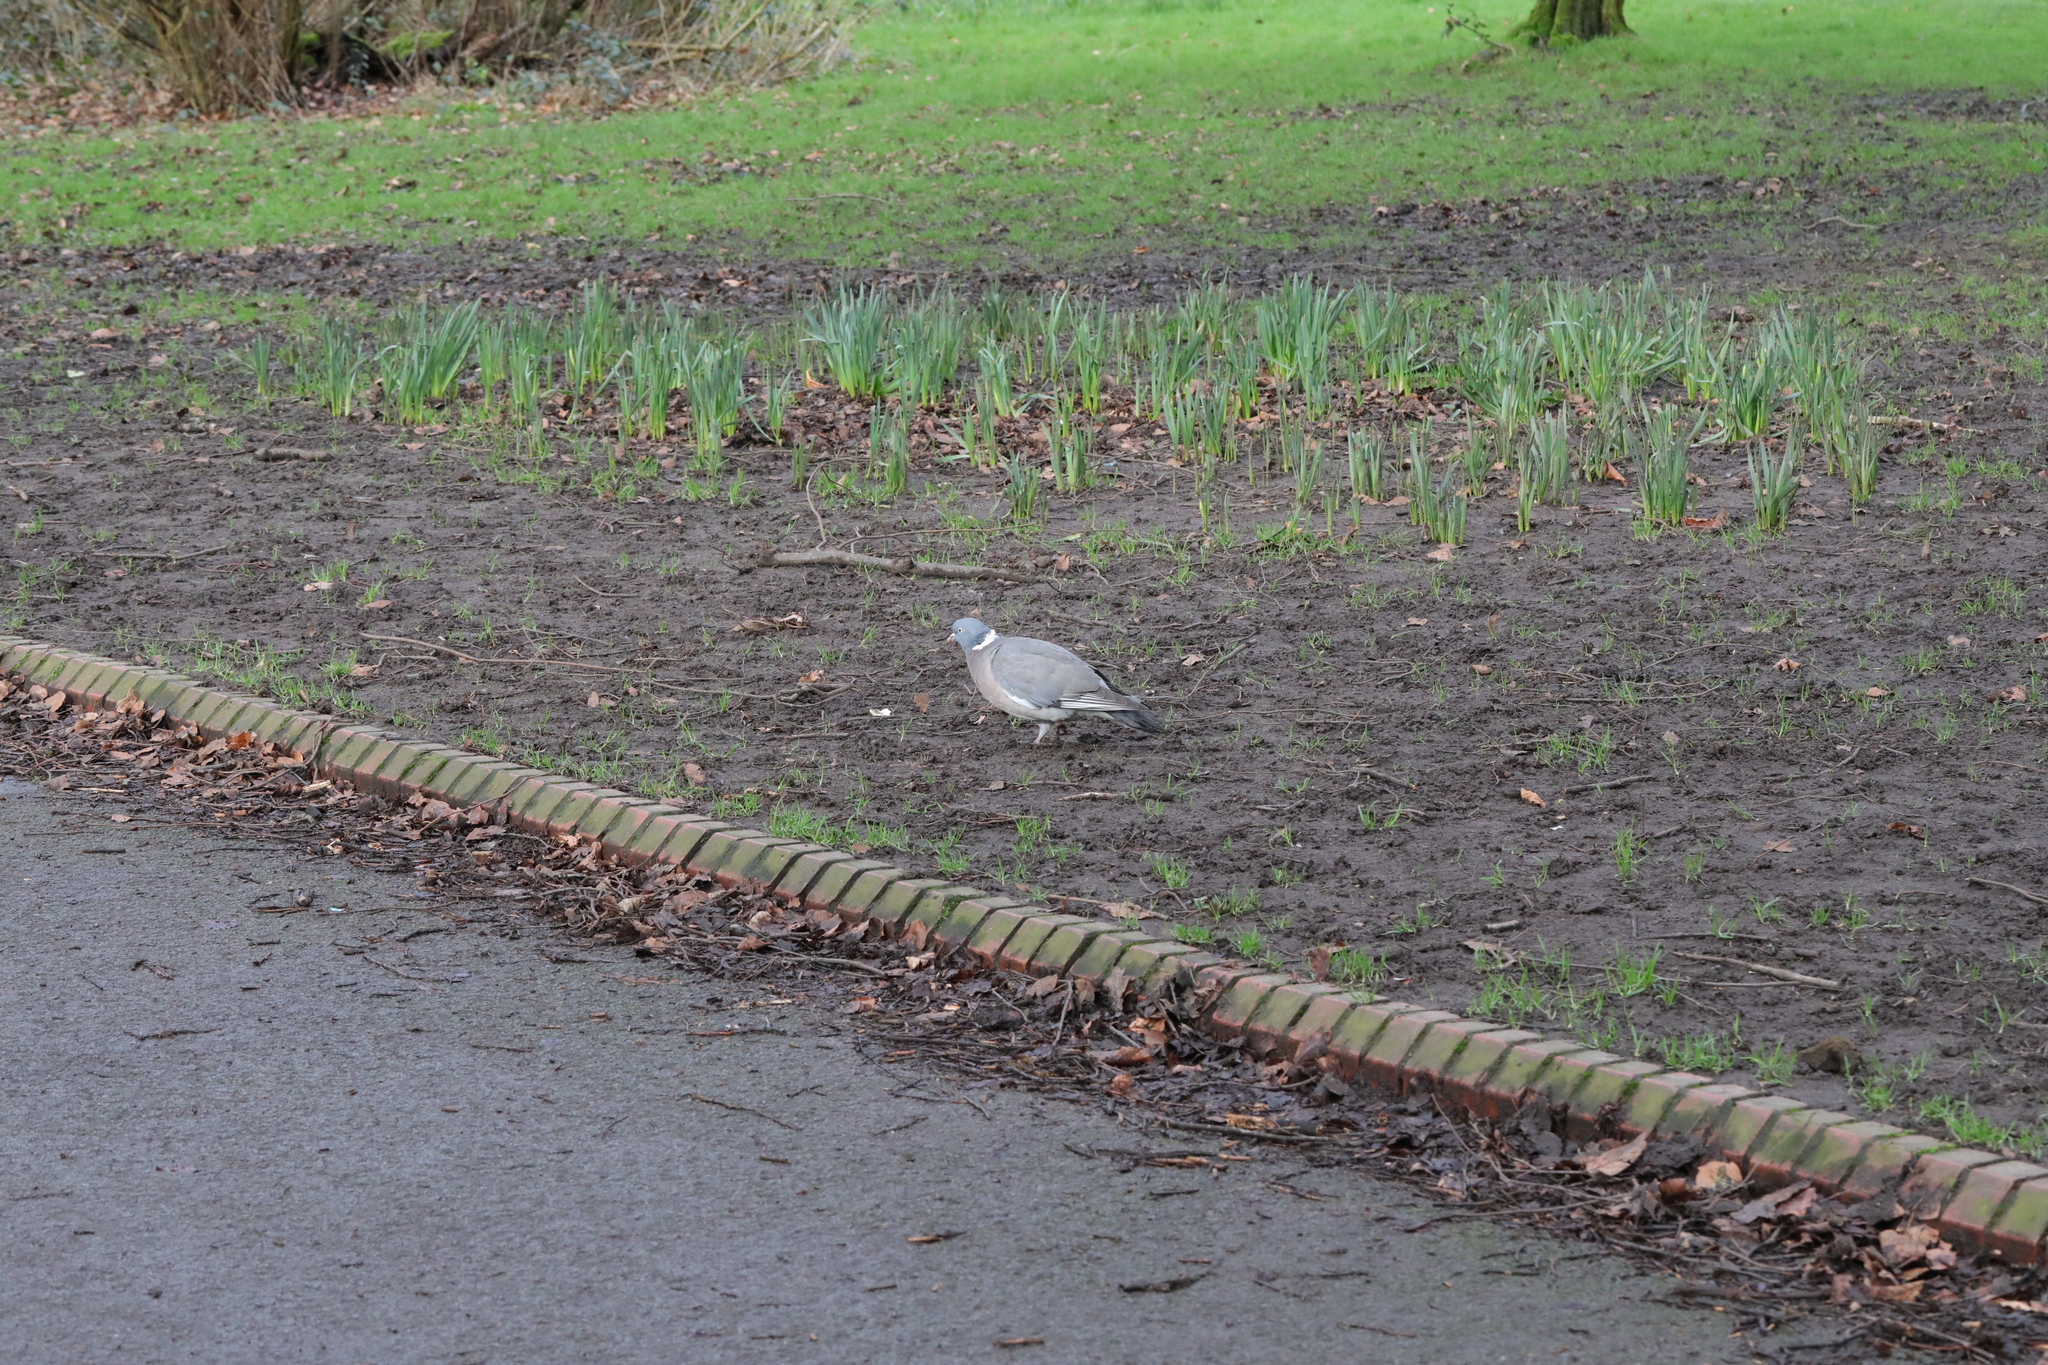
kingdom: Animalia
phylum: Chordata
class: Aves
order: Columbiformes
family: Columbidae
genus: Columba
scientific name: Columba palumbus
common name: Common wood pigeon
